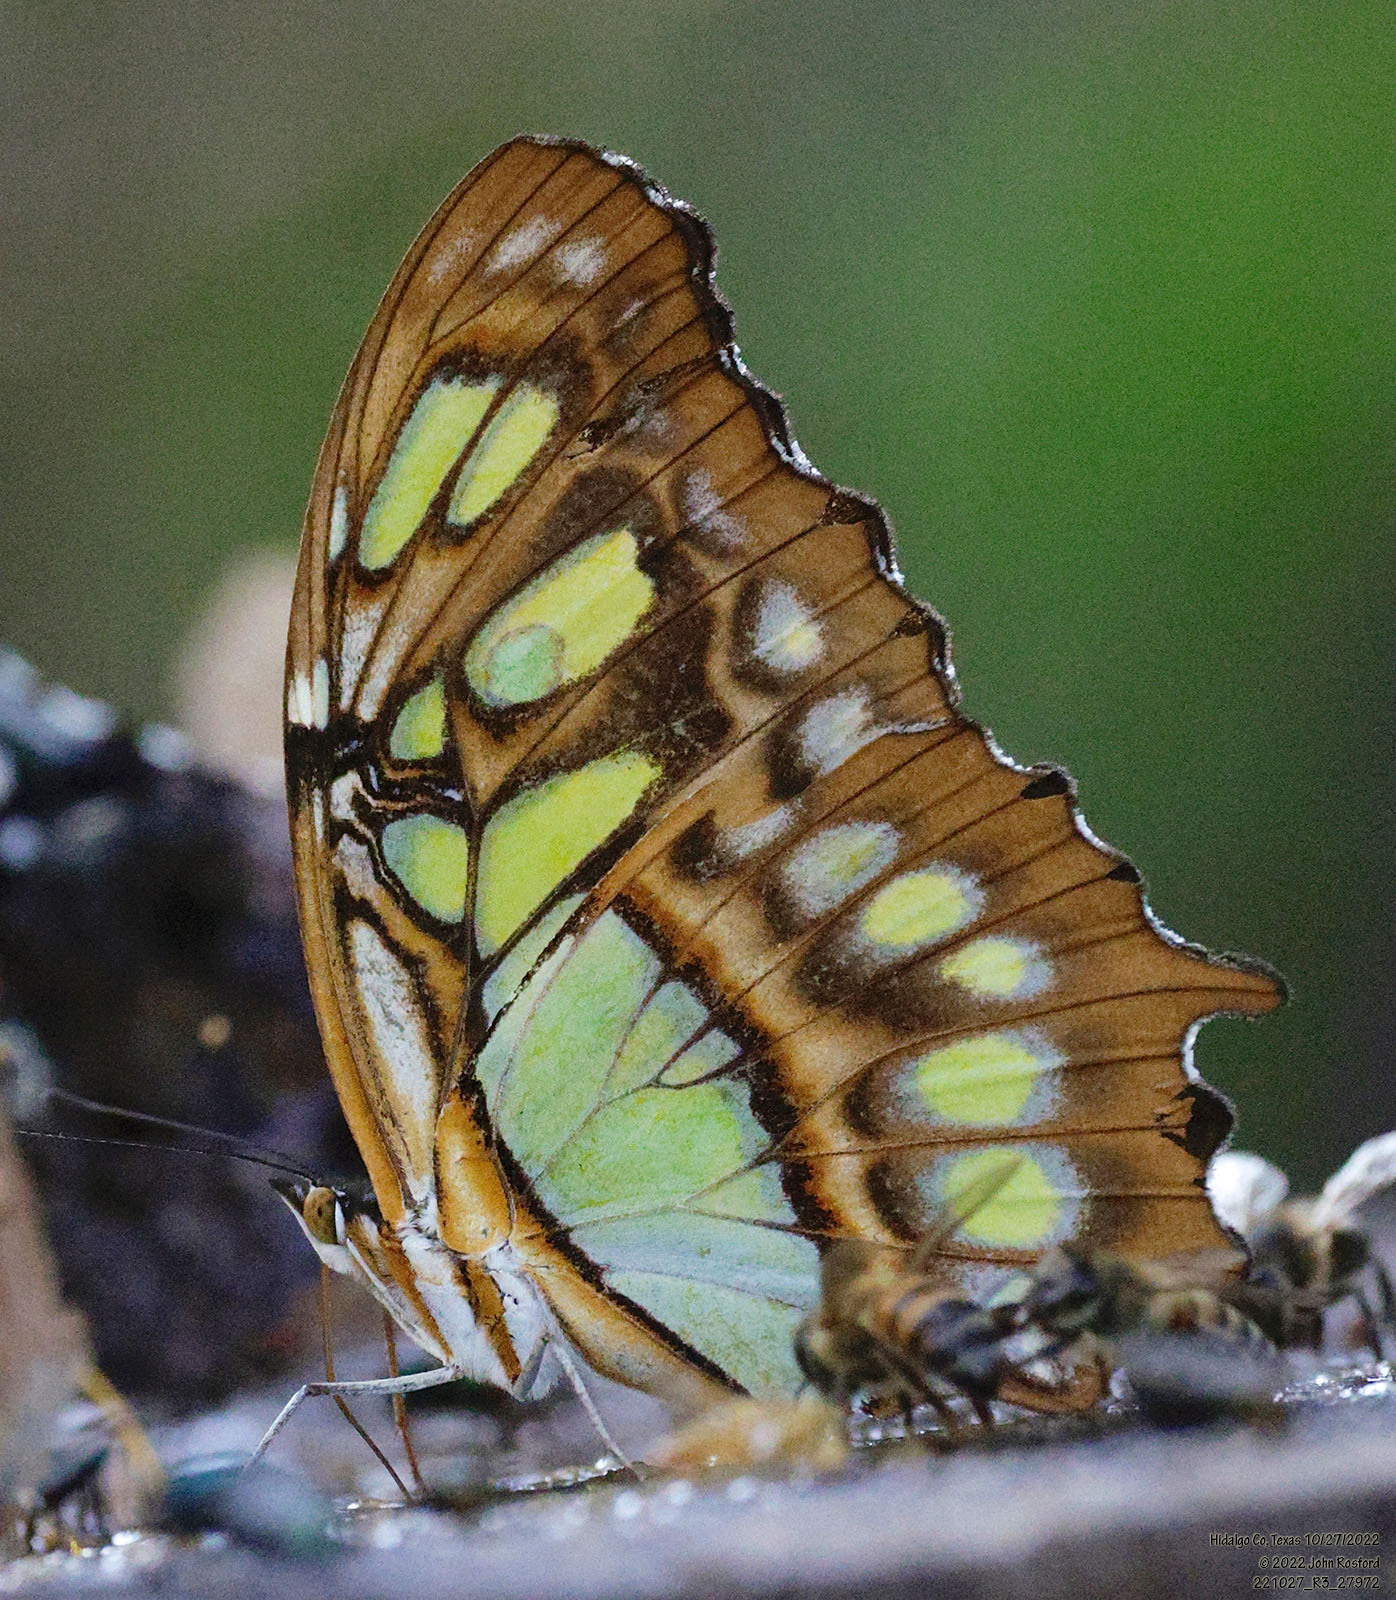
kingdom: Animalia
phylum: Arthropoda
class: Insecta
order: Lepidoptera
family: Nymphalidae
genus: Siproeta
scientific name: Siproeta stelenes
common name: Malachite
